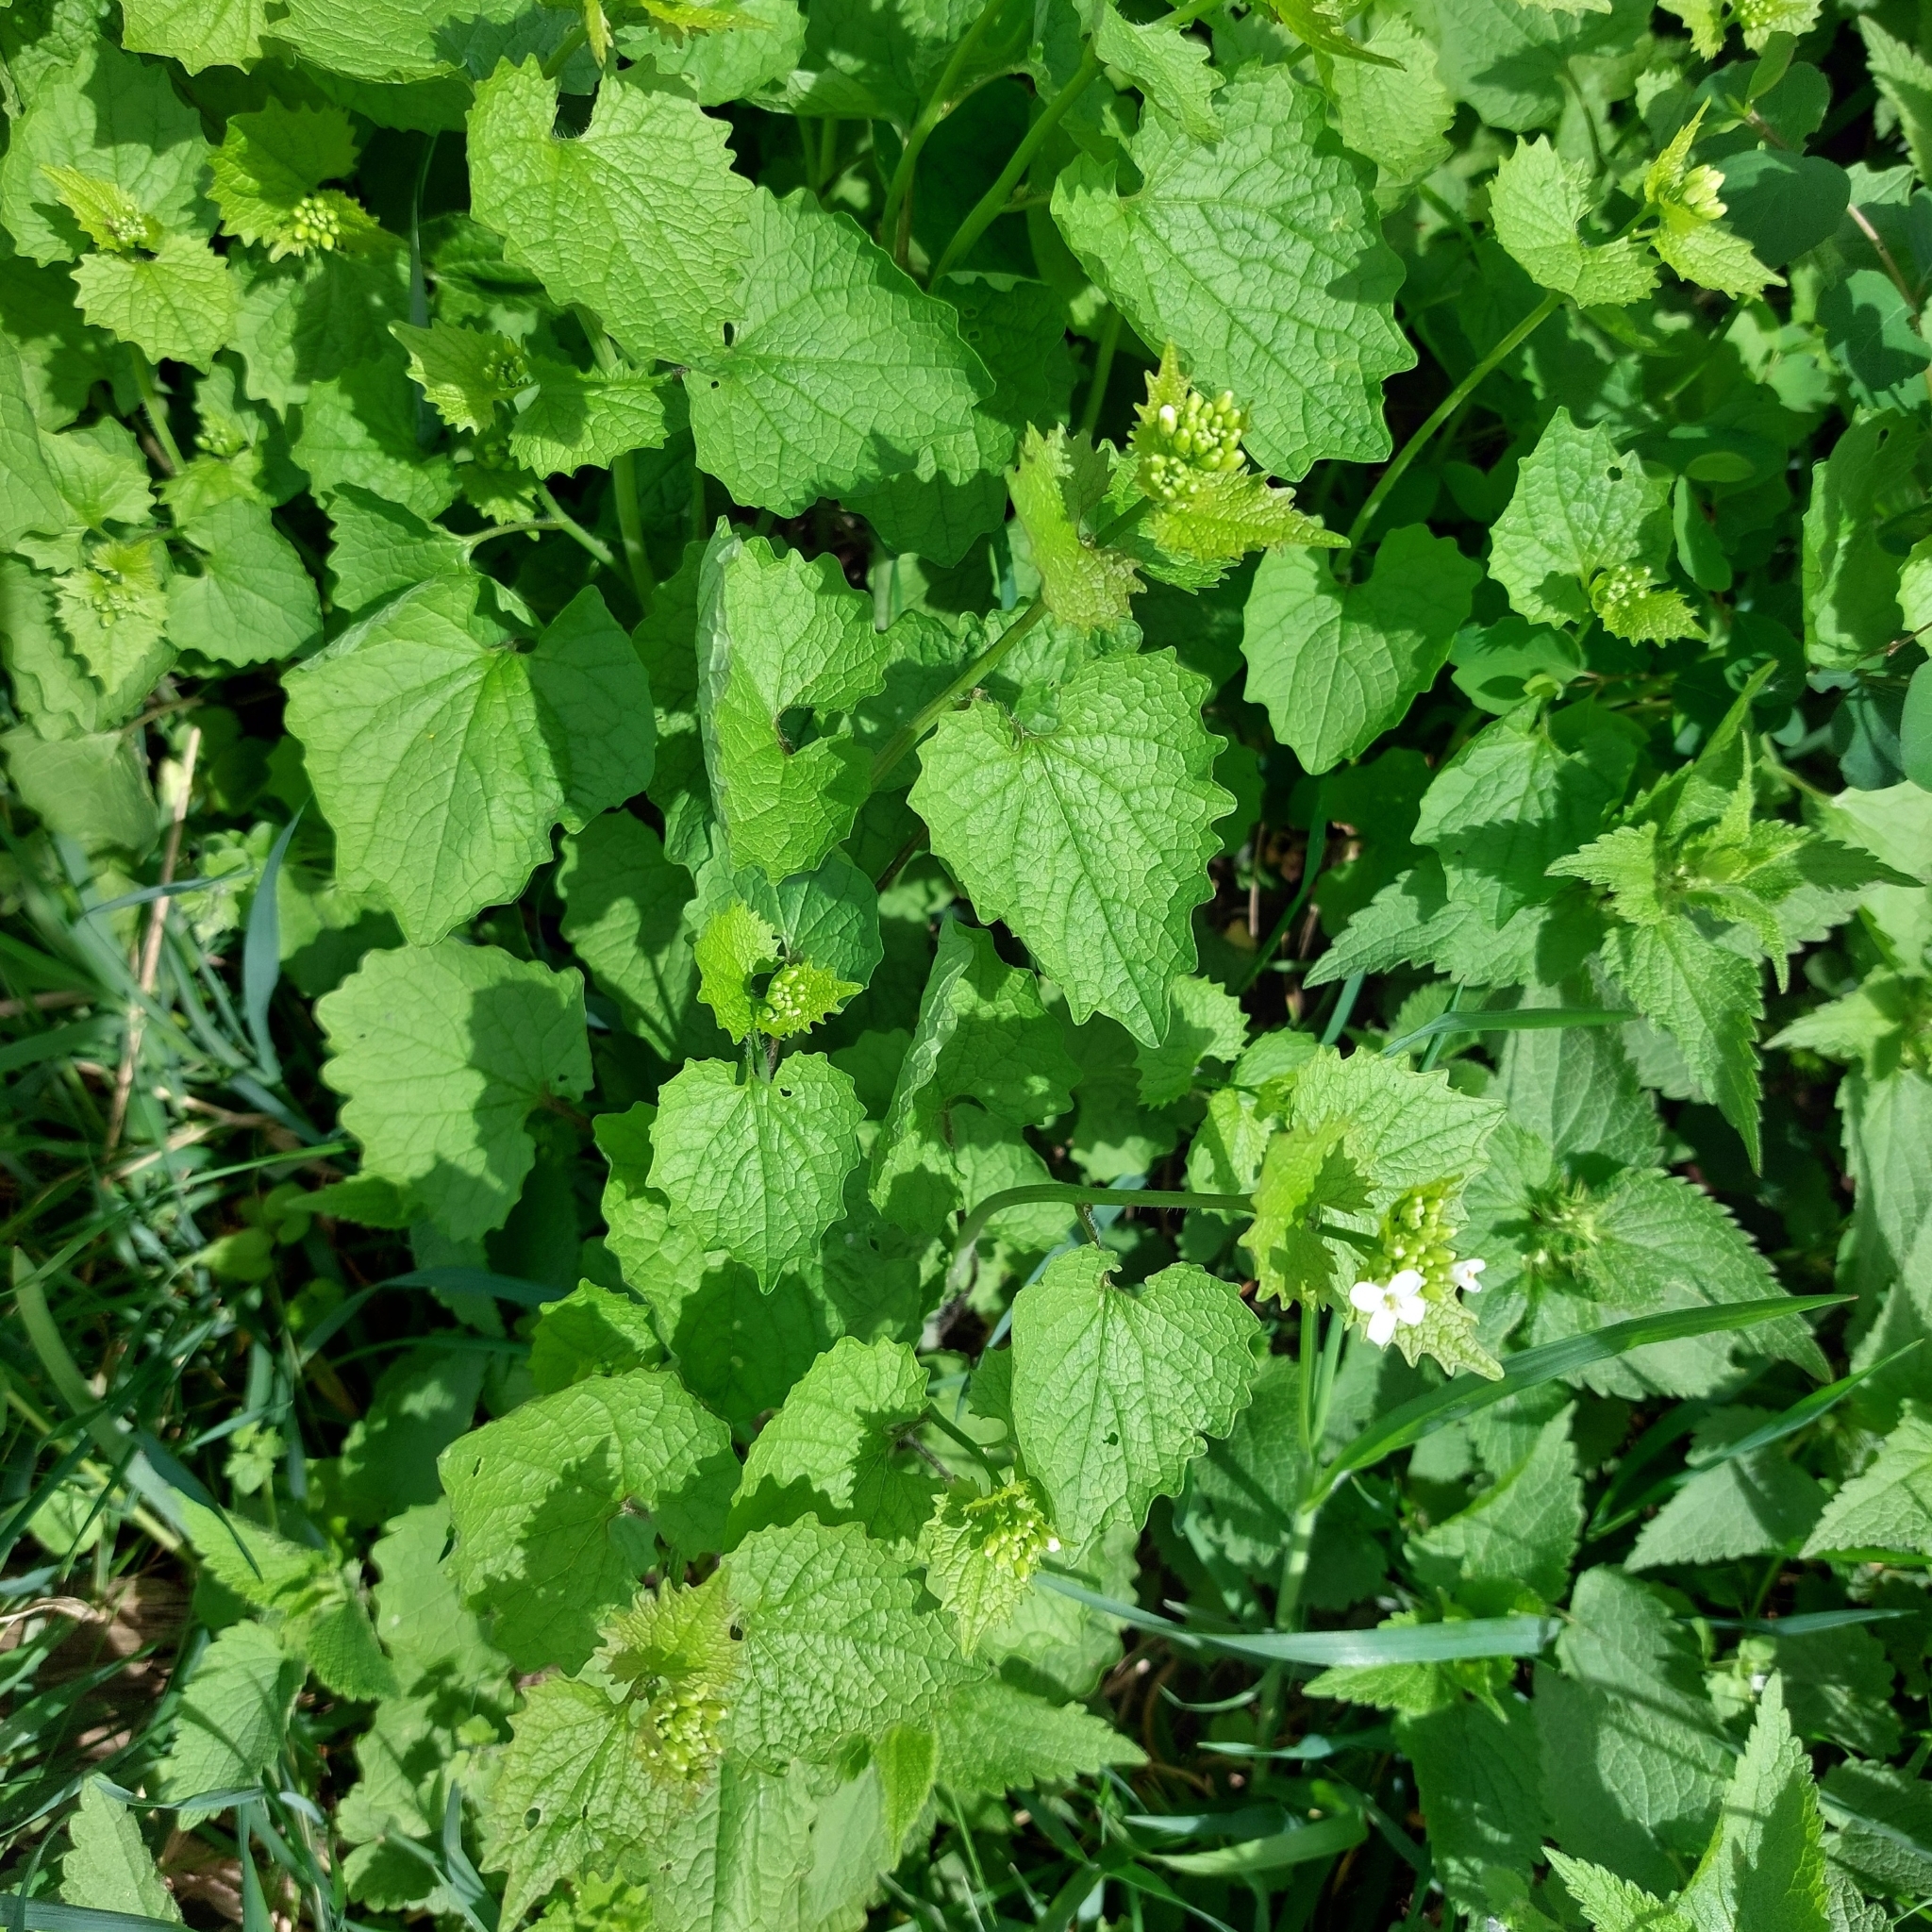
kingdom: Plantae
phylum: Tracheophyta
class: Magnoliopsida
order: Brassicales
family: Brassicaceae
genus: Alliaria
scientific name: Alliaria petiolata
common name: Garlic mustard
